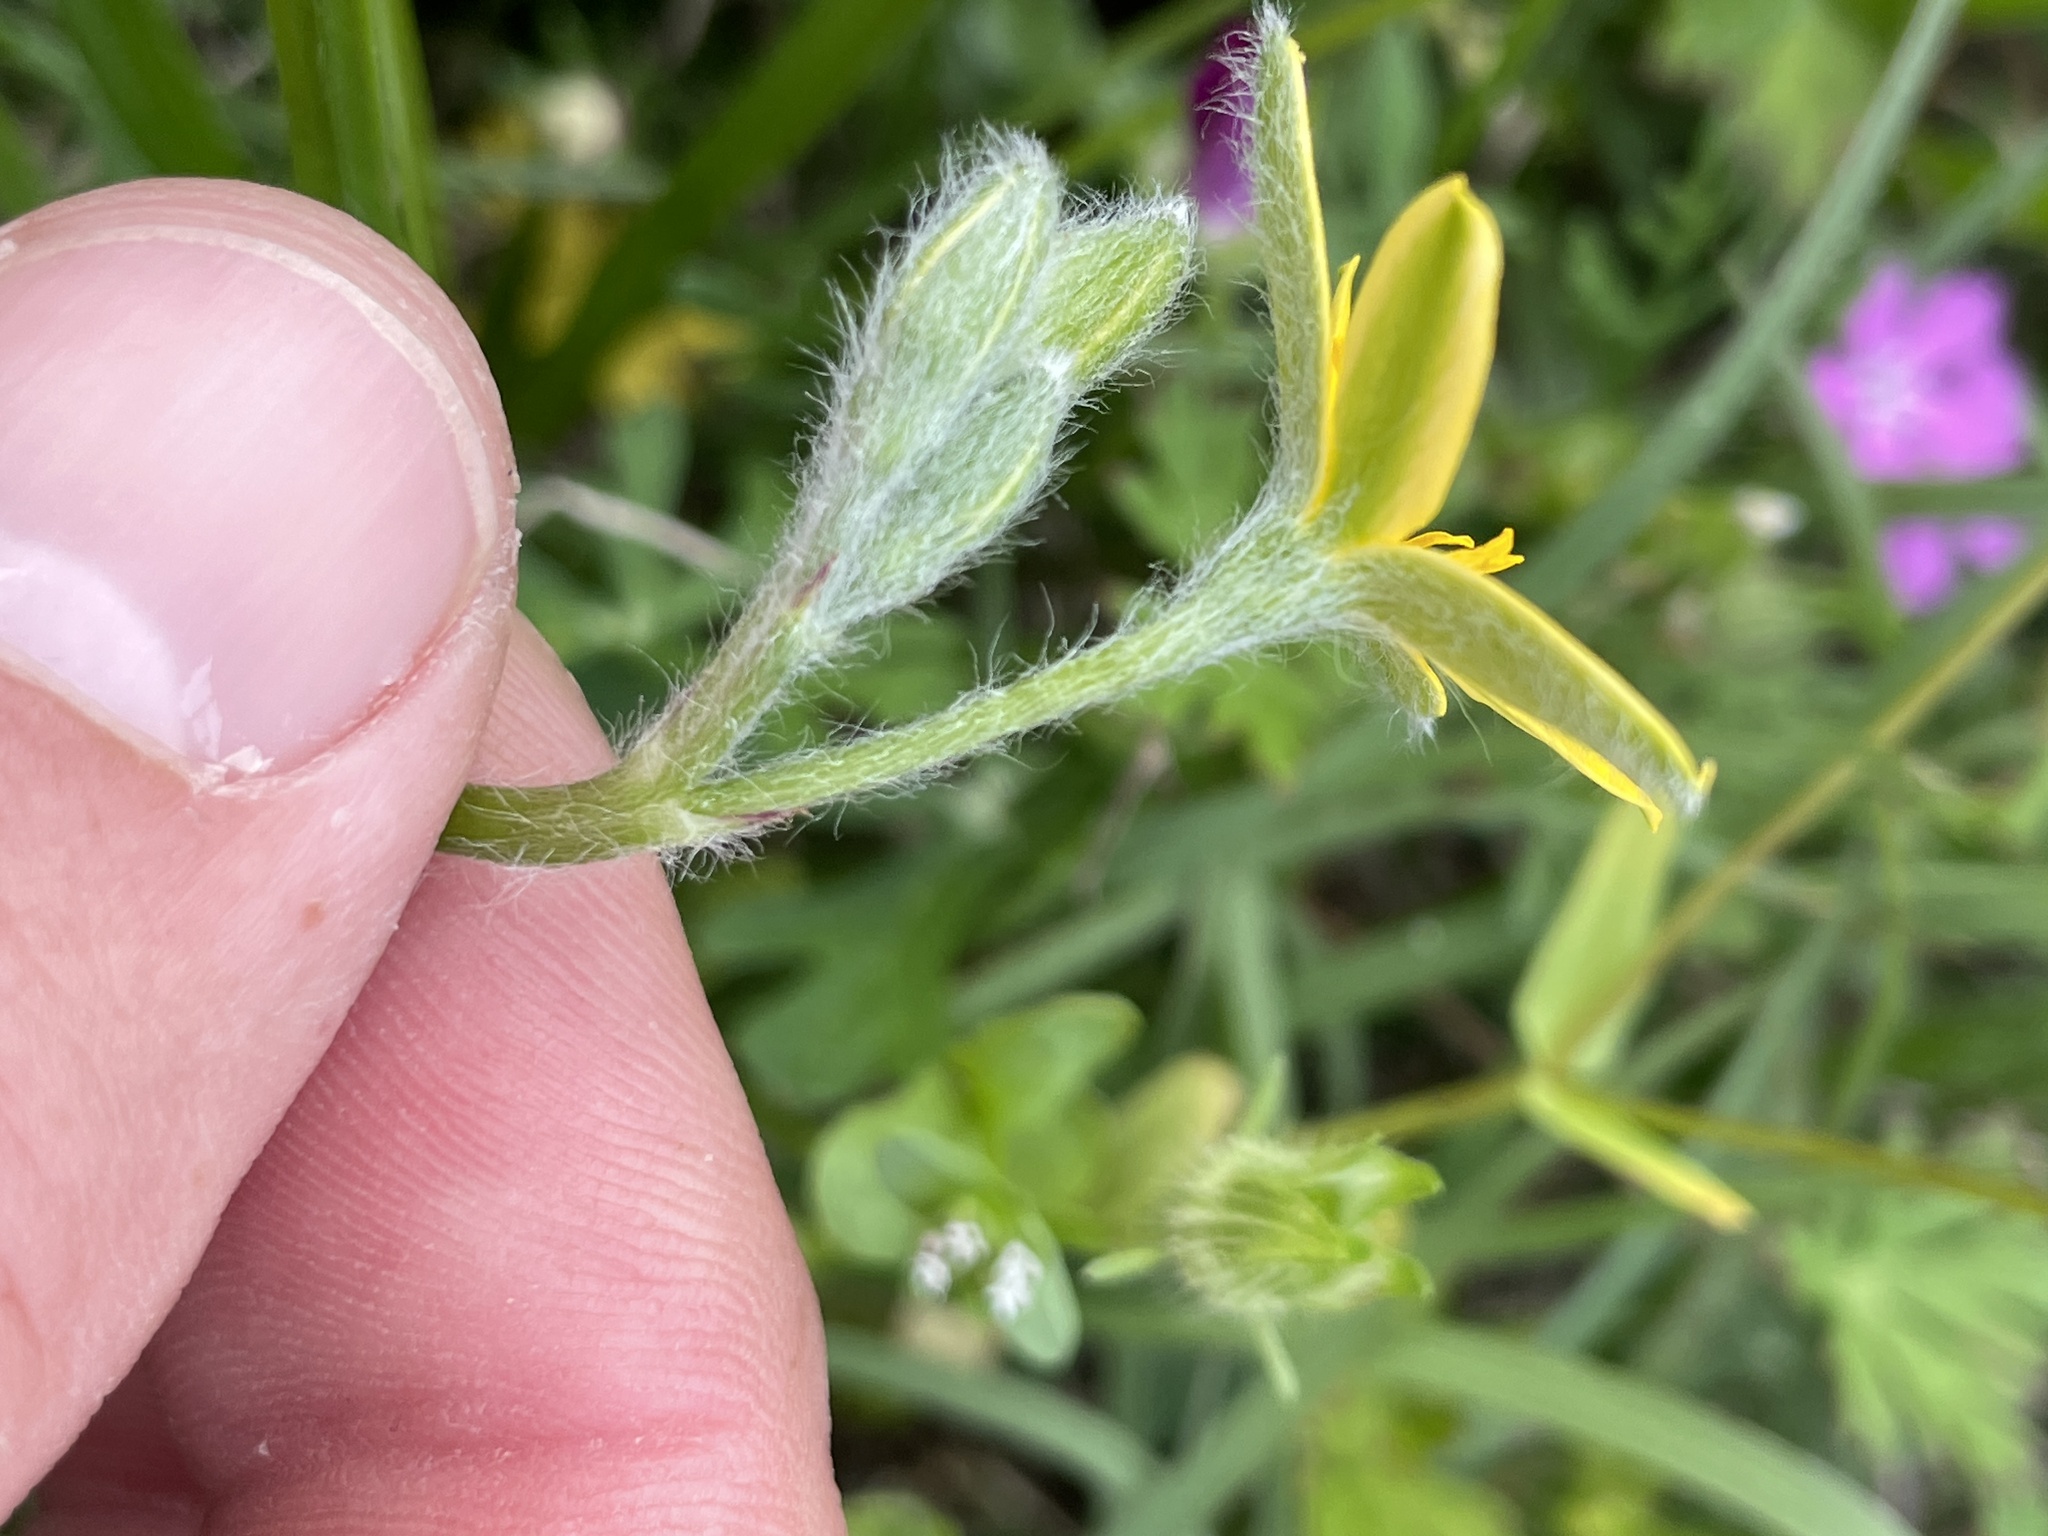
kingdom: Plantae
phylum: Tracheophyta
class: Liliopsida
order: Asparagales
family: Hypoxidaceae
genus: Hypoxis
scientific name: Hypoxis hirsuta
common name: Common goldstar
